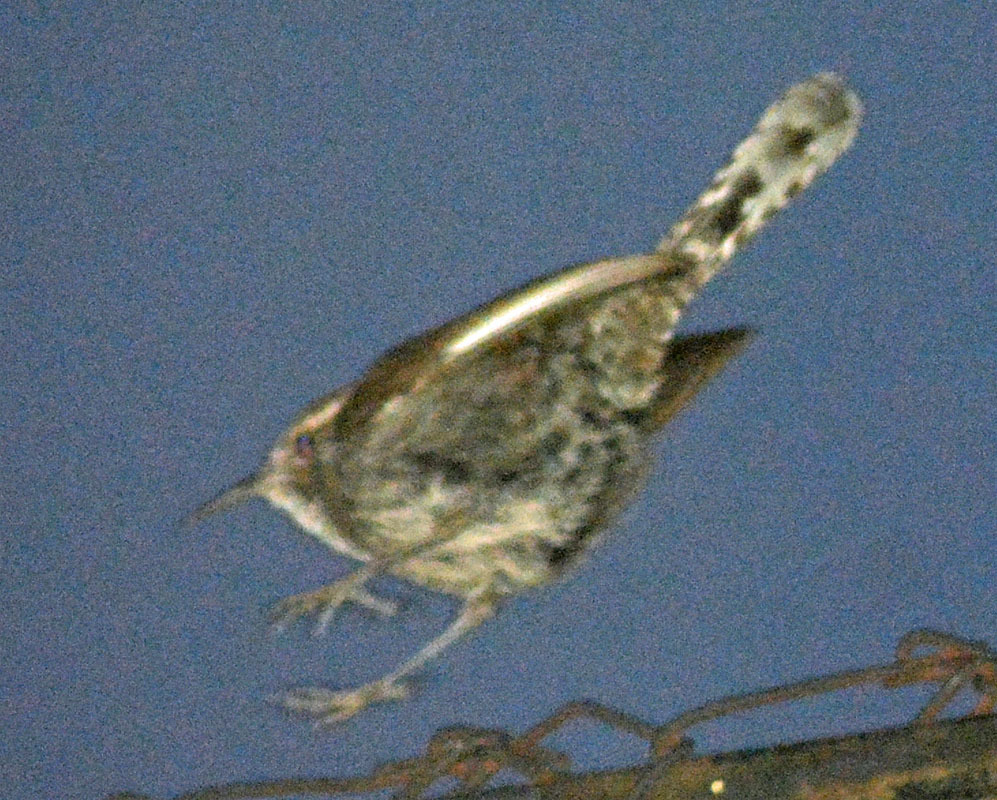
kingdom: Animalia
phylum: Chordata
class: Aves
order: Passeriformes
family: Troglodytidae
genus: Thryomanes
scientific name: Thryomanes bewickii
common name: Bewick's wren
